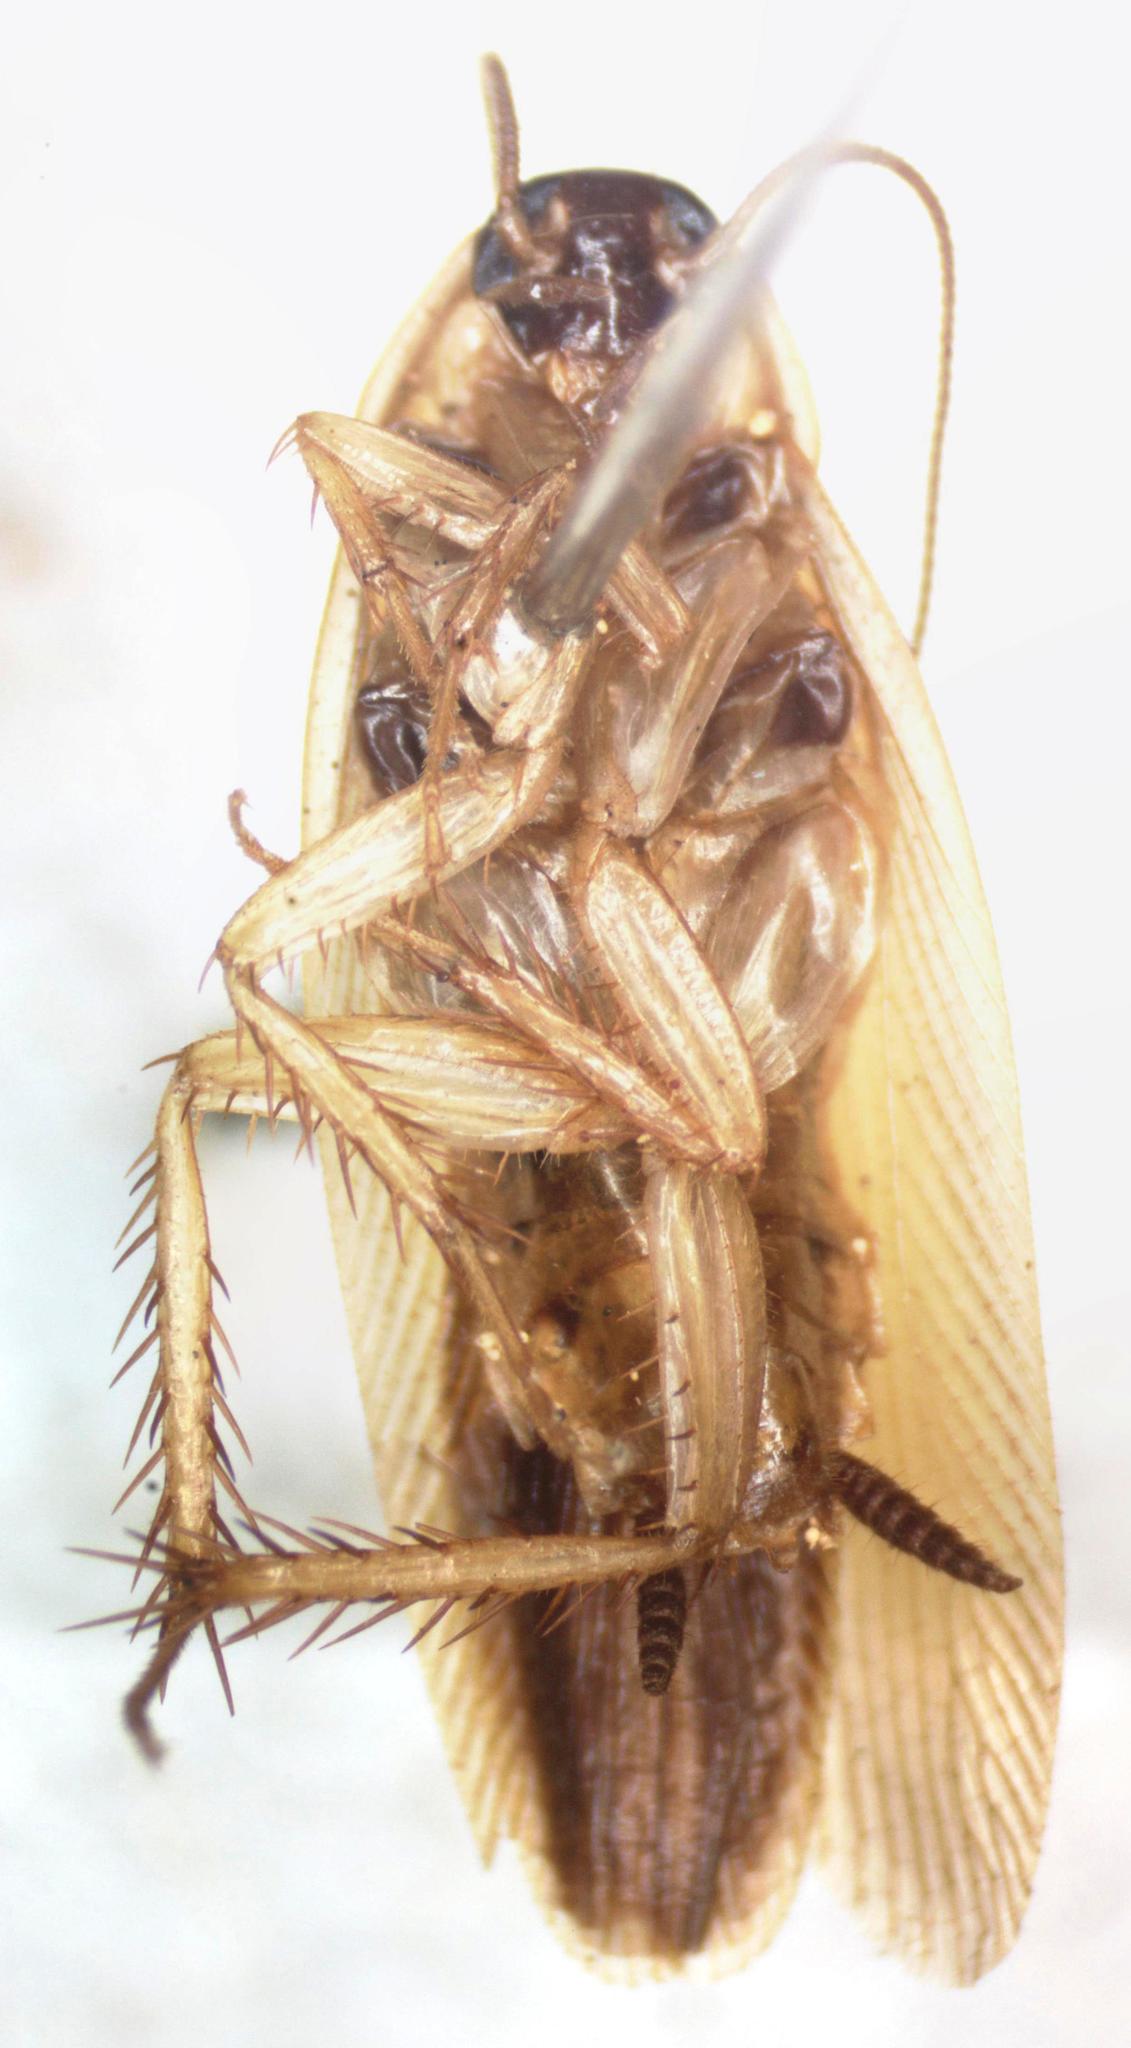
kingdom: Animalia
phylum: Arthropoda
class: Insecta
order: Blattodea
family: Ectobiidae
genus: Chromatonotus
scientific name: Chromatonotus quarequae
